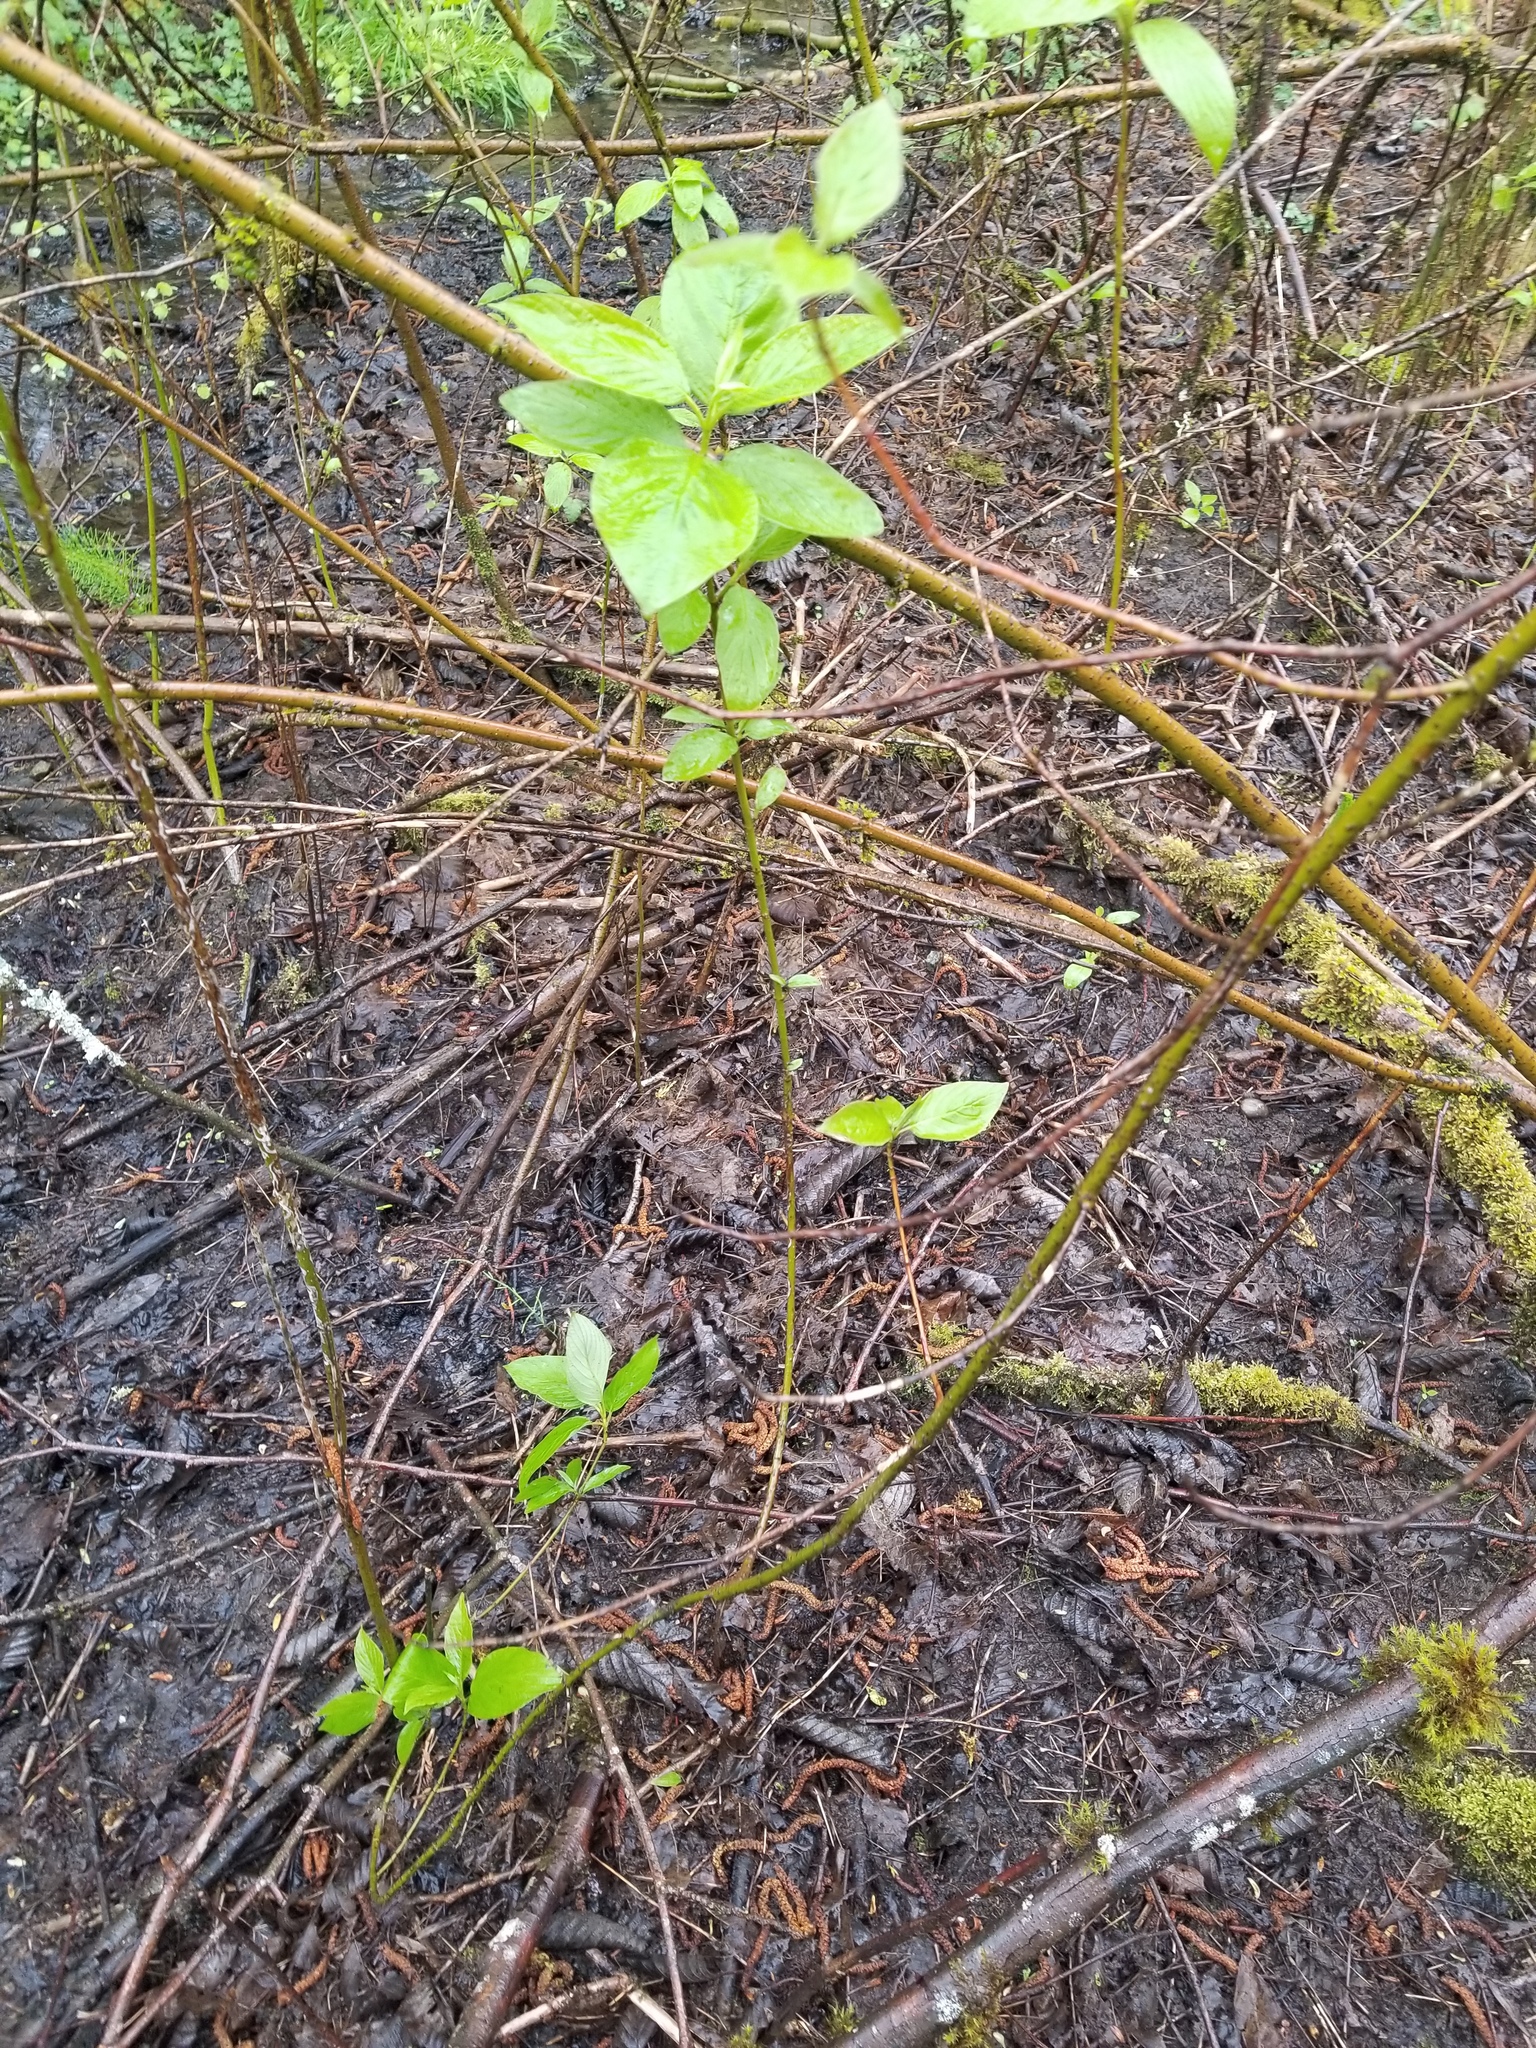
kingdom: Plantae
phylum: Tracheophyta
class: Magnoliopsida
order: Cornales
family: Cornaceae
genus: Cornus
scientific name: Cornus sericea
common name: Red-osier dogwood
